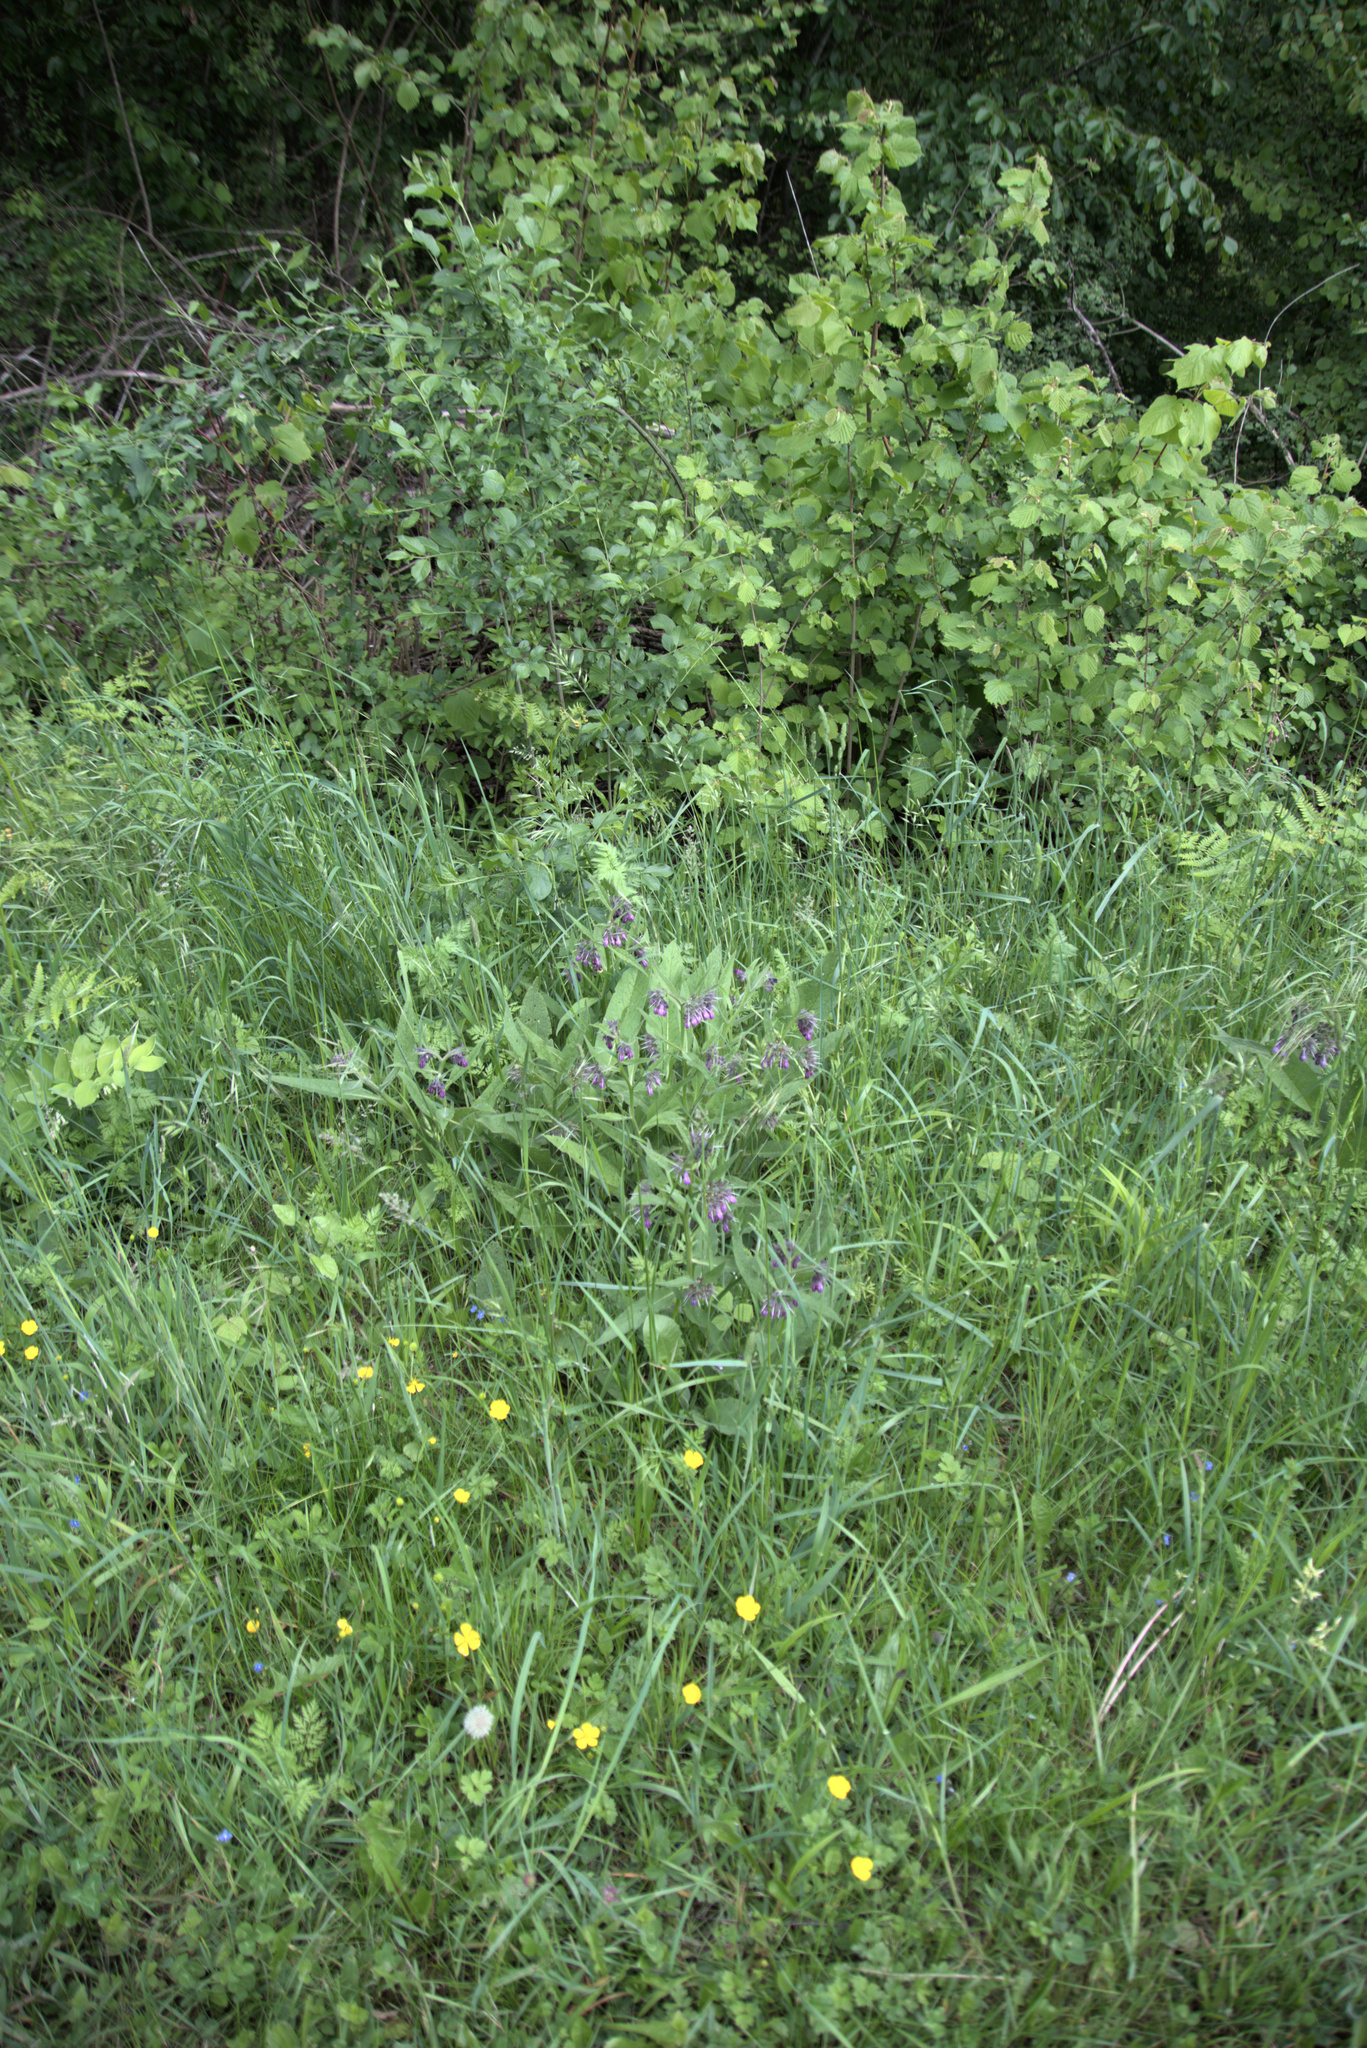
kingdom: Plantae
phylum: Tracheophyta
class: Magnoliopsida
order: Boraginales
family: Boraginaceae
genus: Symphytum
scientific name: Symphytum officinale
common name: Common comfrey
